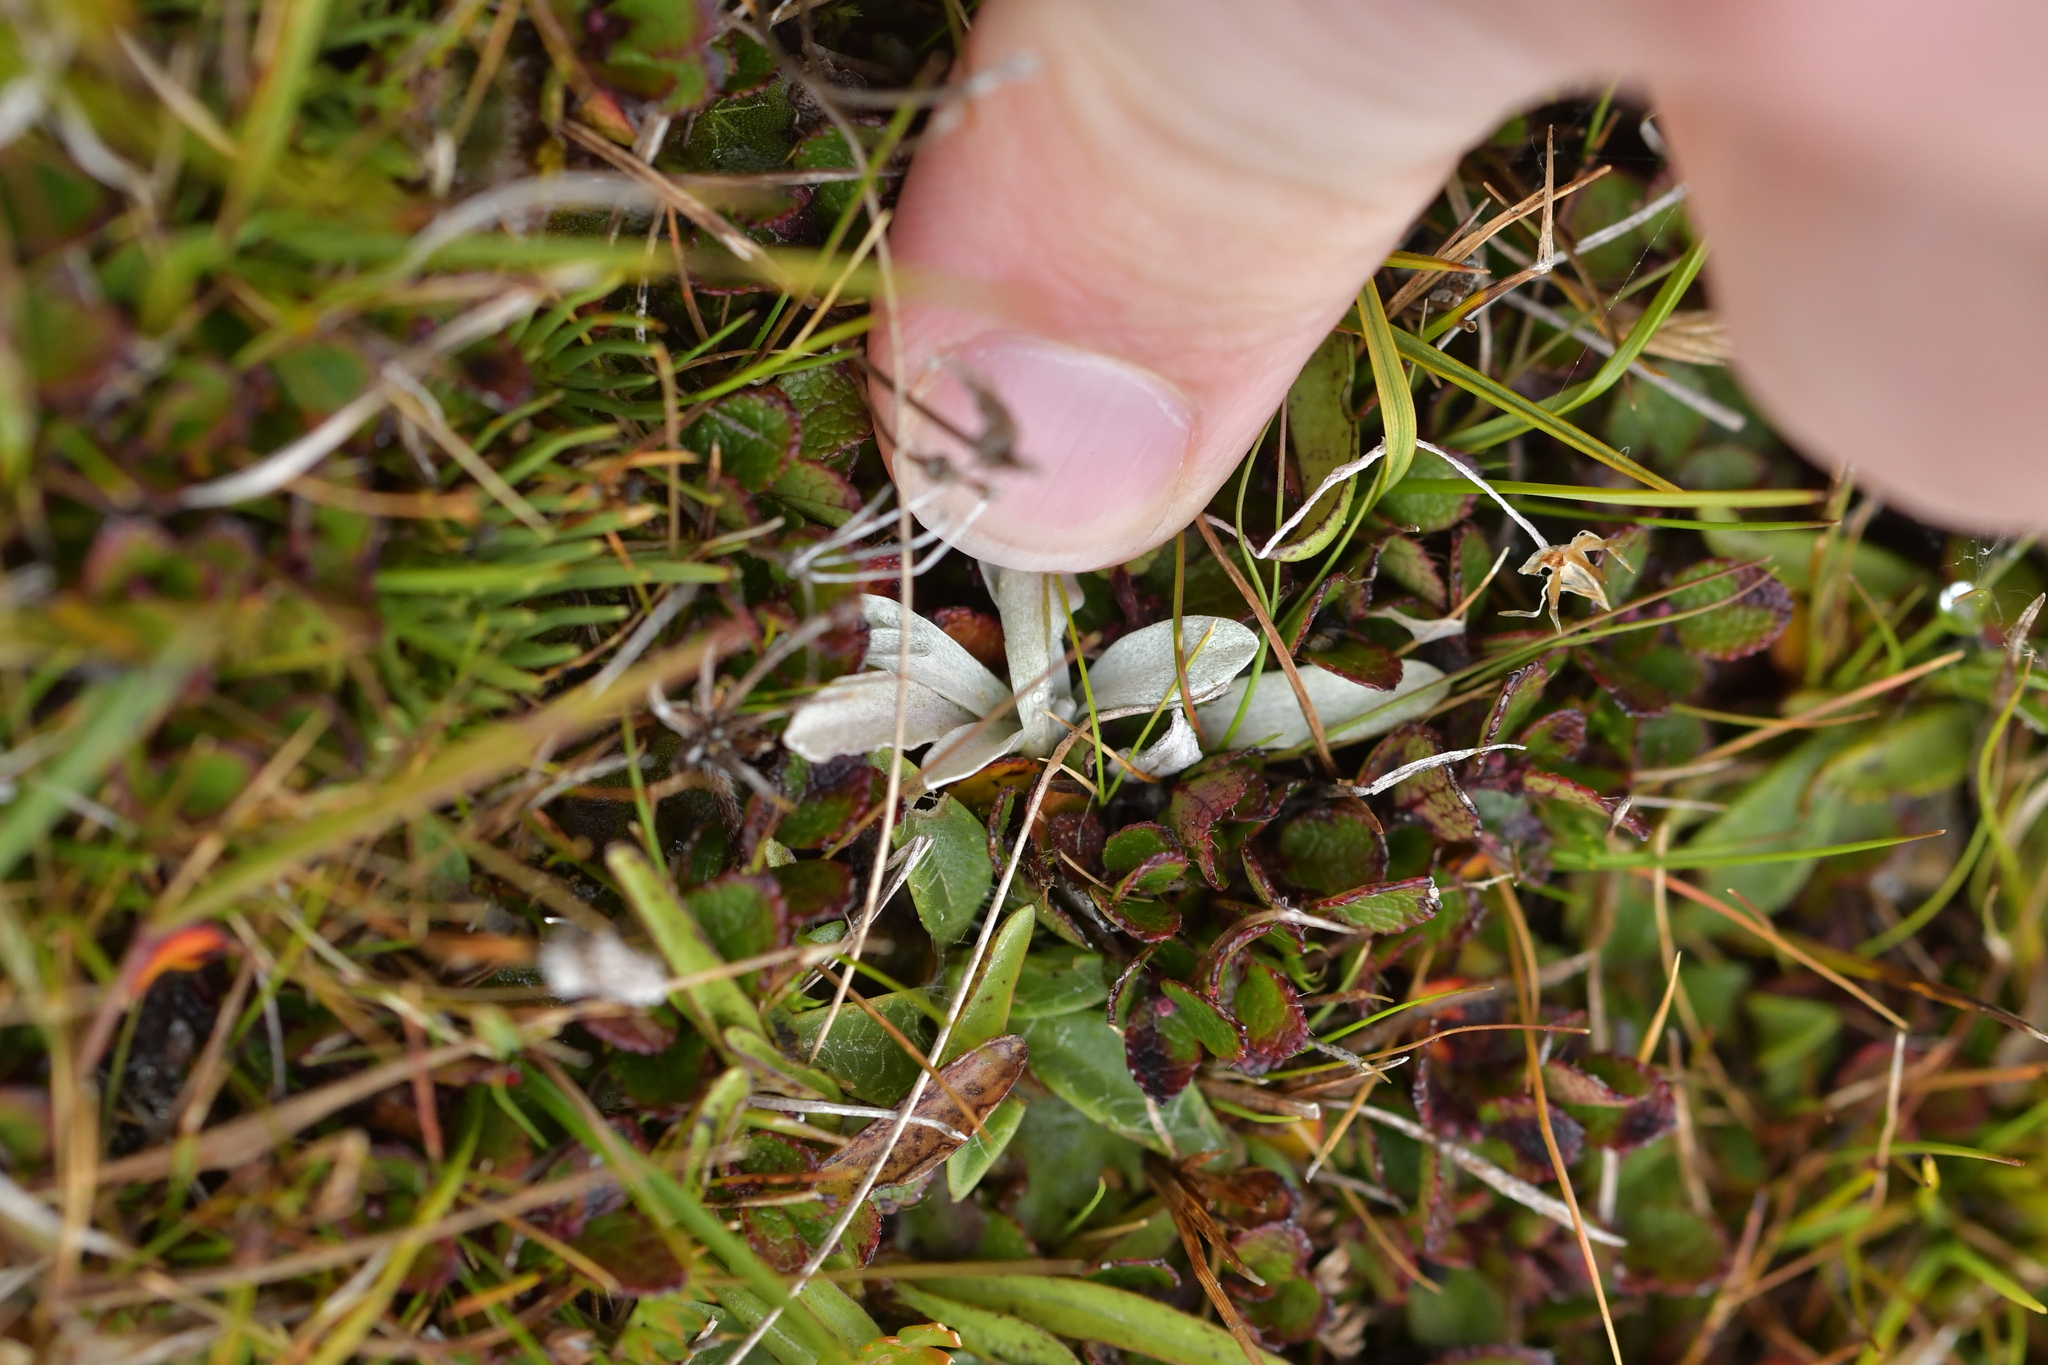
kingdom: Plantae
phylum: Tracheophyta
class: Magnoliopsida
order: Asterales
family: Asteraceae
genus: Euchiton
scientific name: Euchiton traversii
